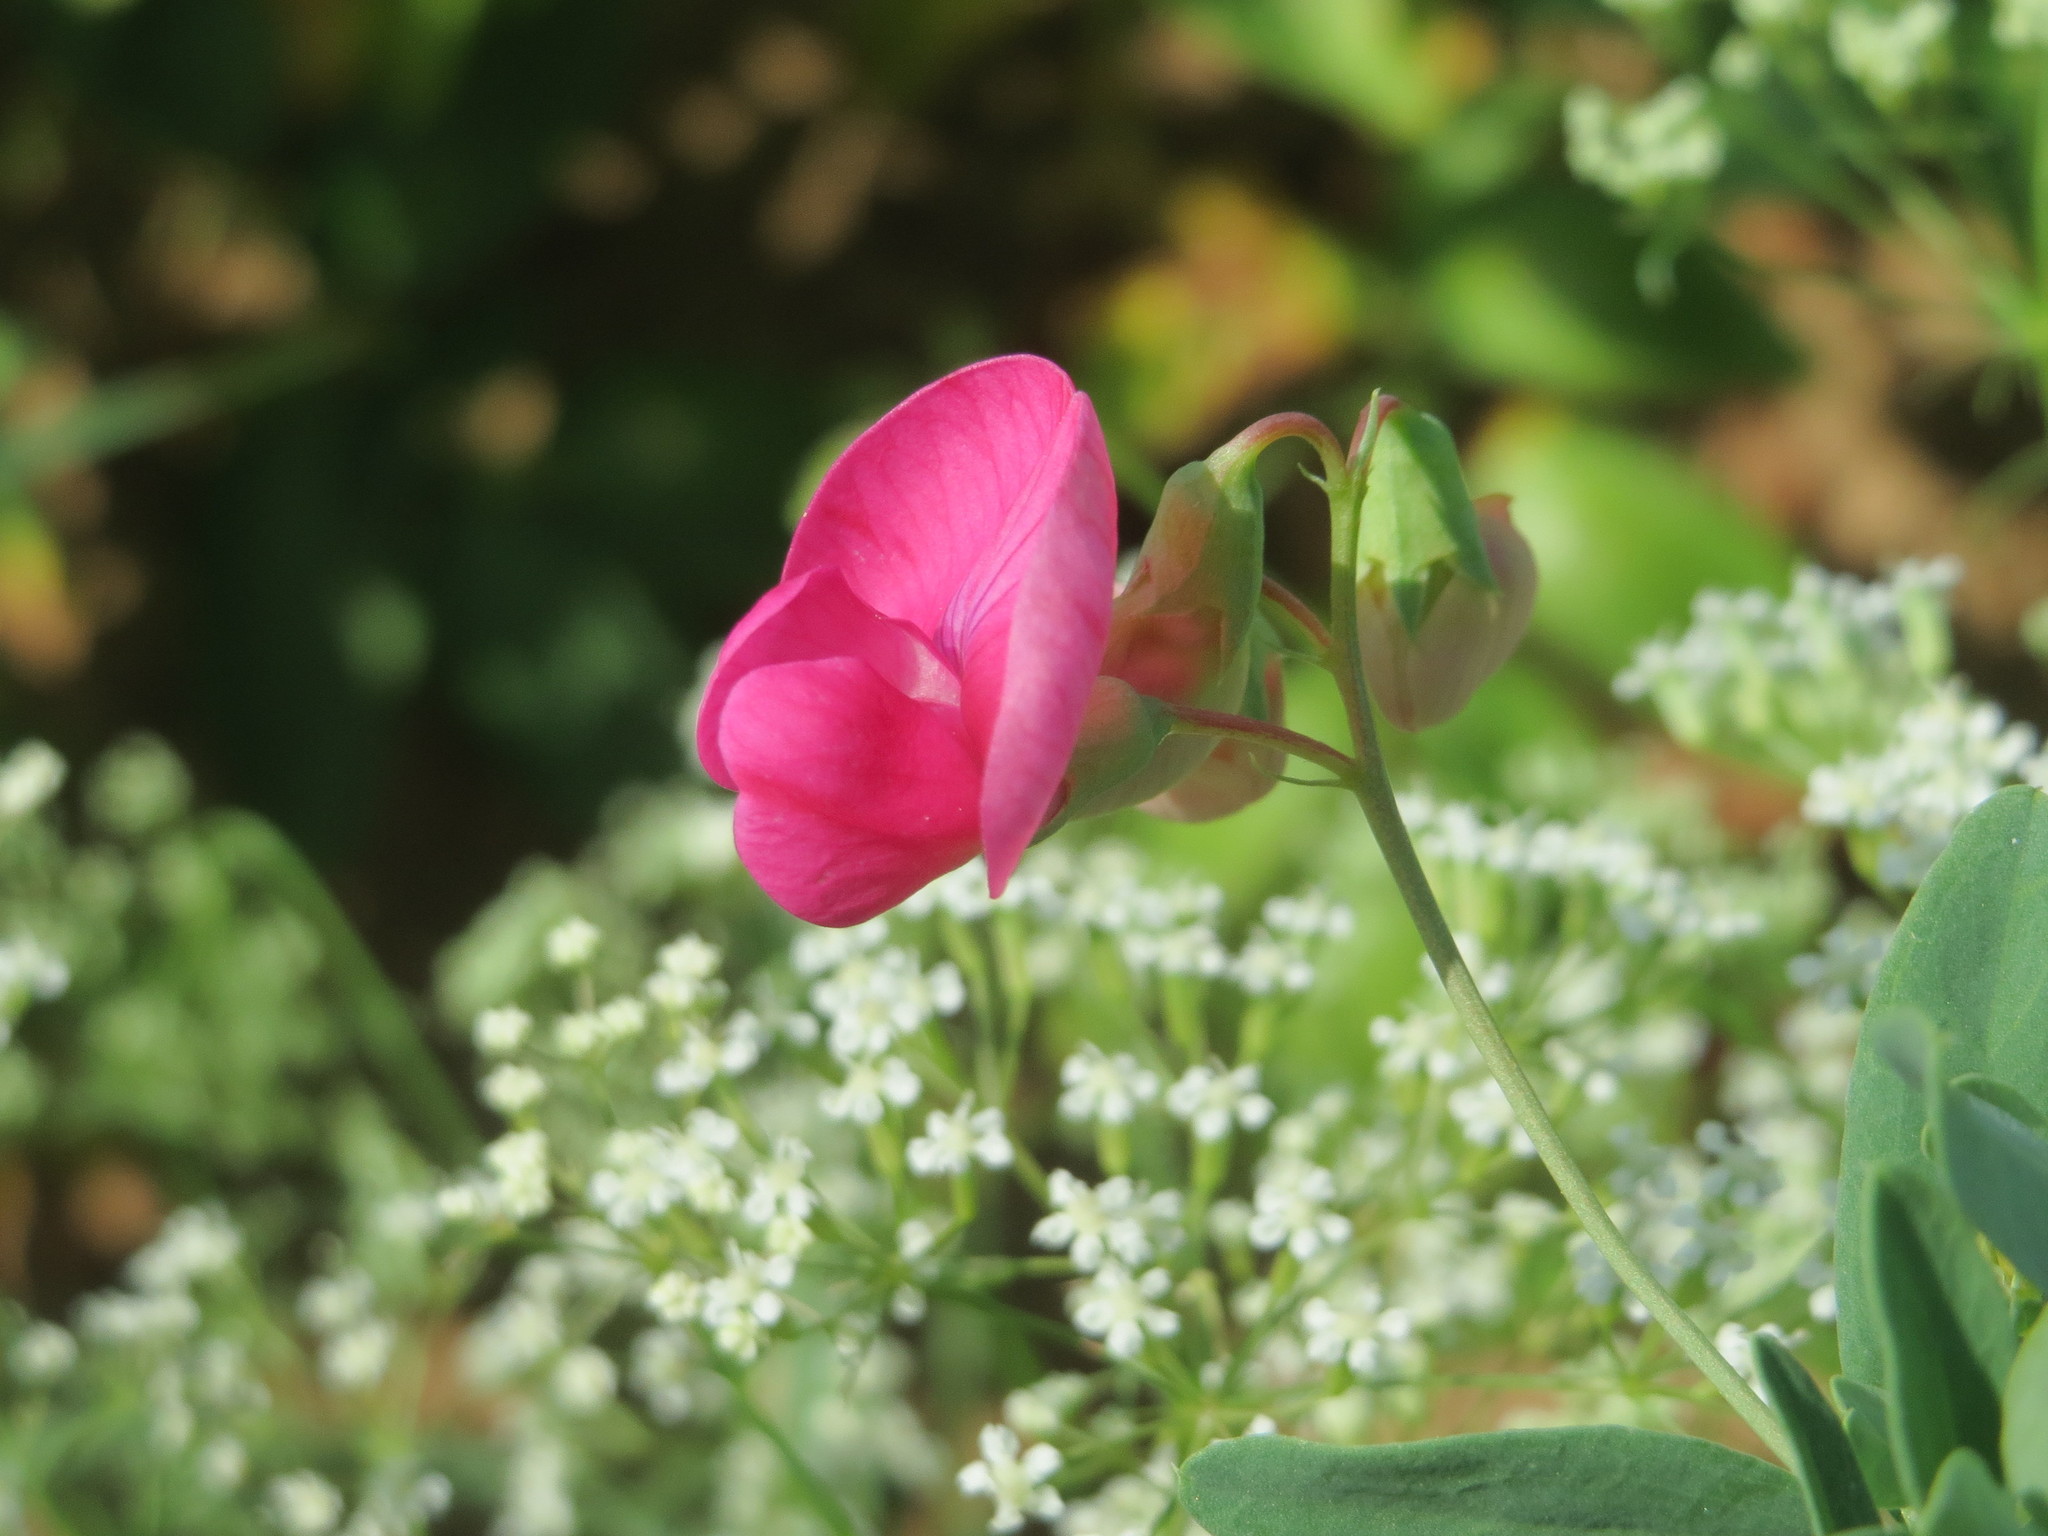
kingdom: Plantae
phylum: Tracheophyta
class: Magnoliopsida
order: Fabales
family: Fabaceae
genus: Lathyrus
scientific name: Lathyrus tuberosus
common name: Tuberous pea
